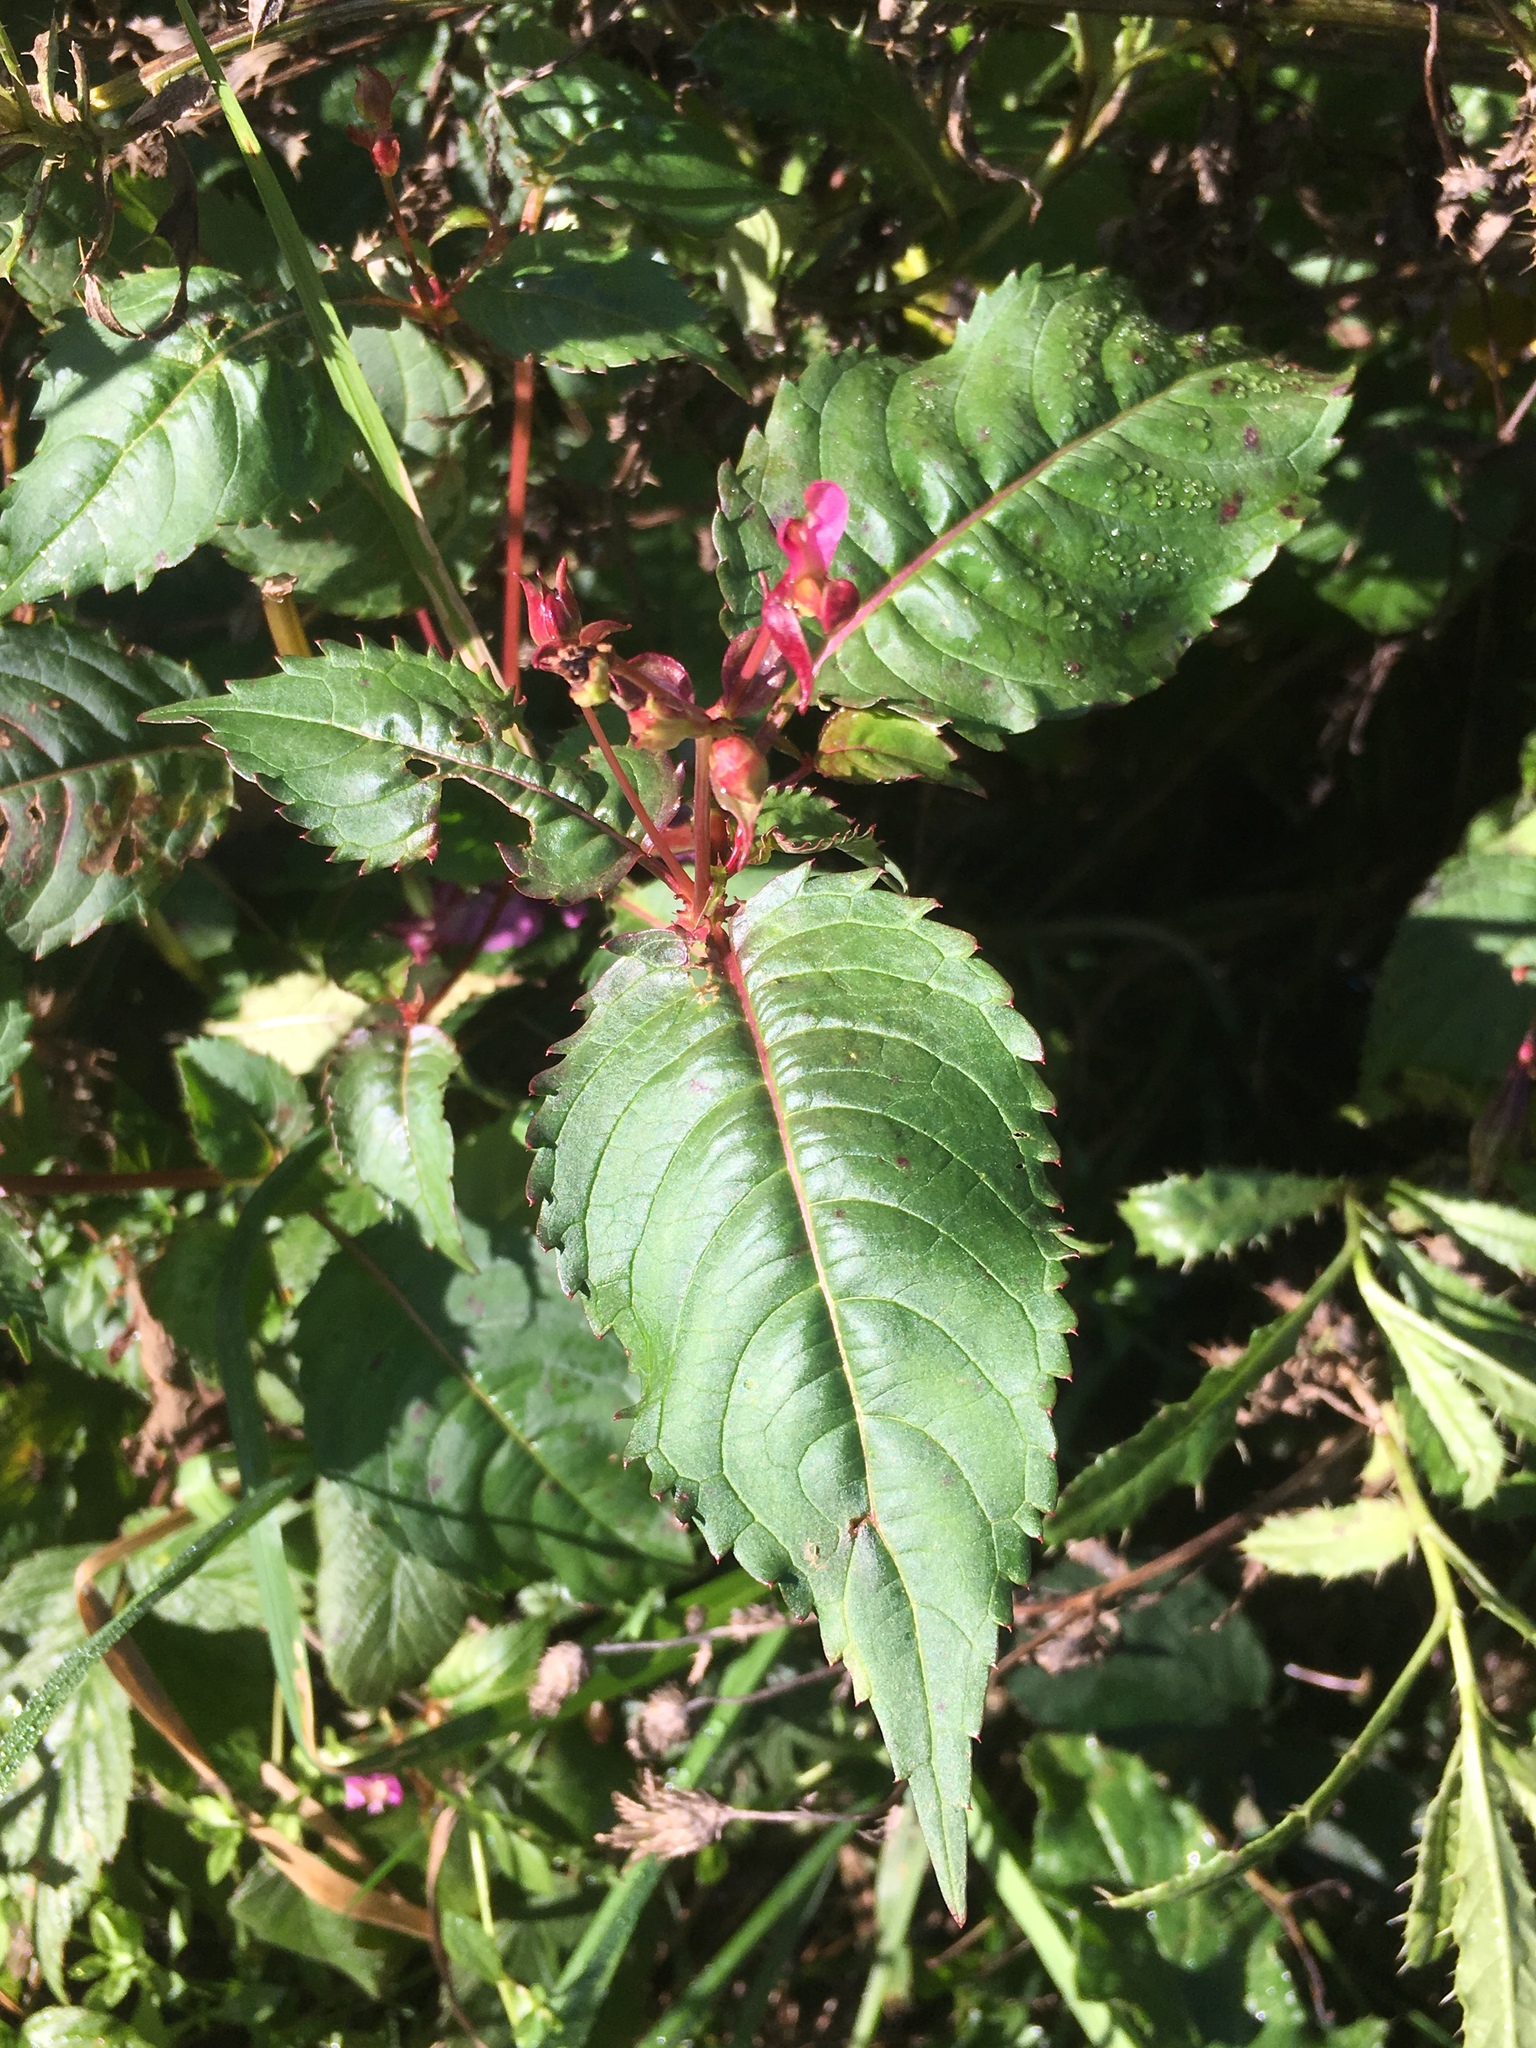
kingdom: Plantae
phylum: Tracheophyta
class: Magnoliopsida
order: Ericales
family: Balsaminaceae
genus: Impatiens
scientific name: Impatiens glandulifera
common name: Himalayan balsam
